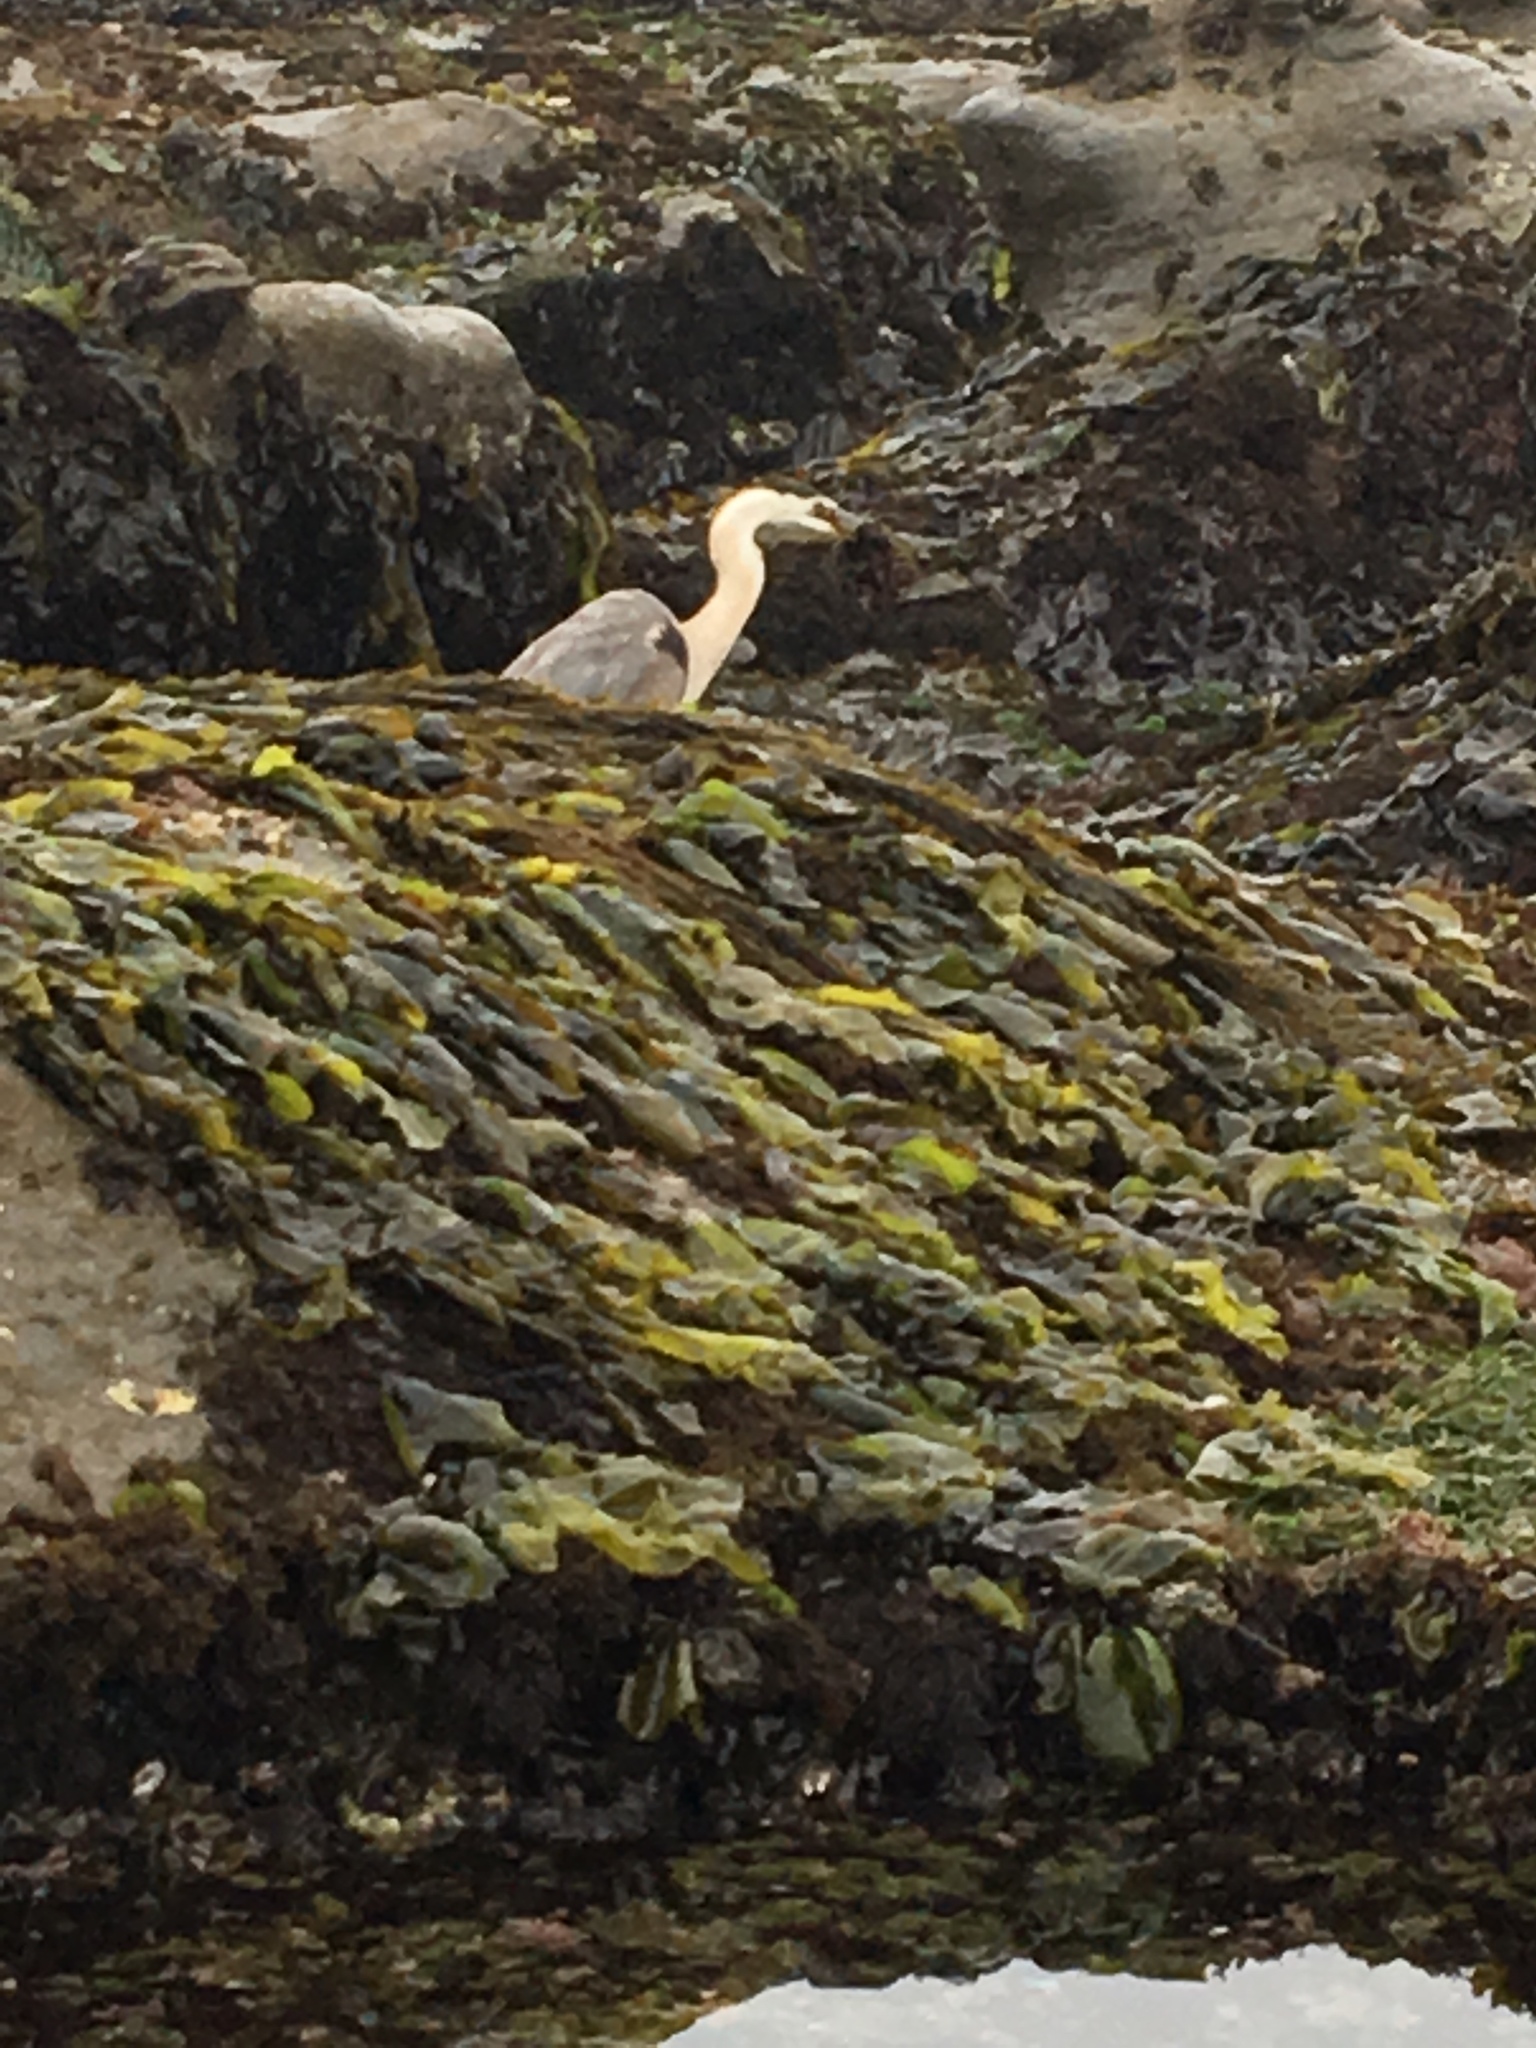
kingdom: Animalia
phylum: Chordata
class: Aves
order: Pelecaniformes
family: Ardeidae
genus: Ardea
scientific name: Ardea herodias
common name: Great blue heron
